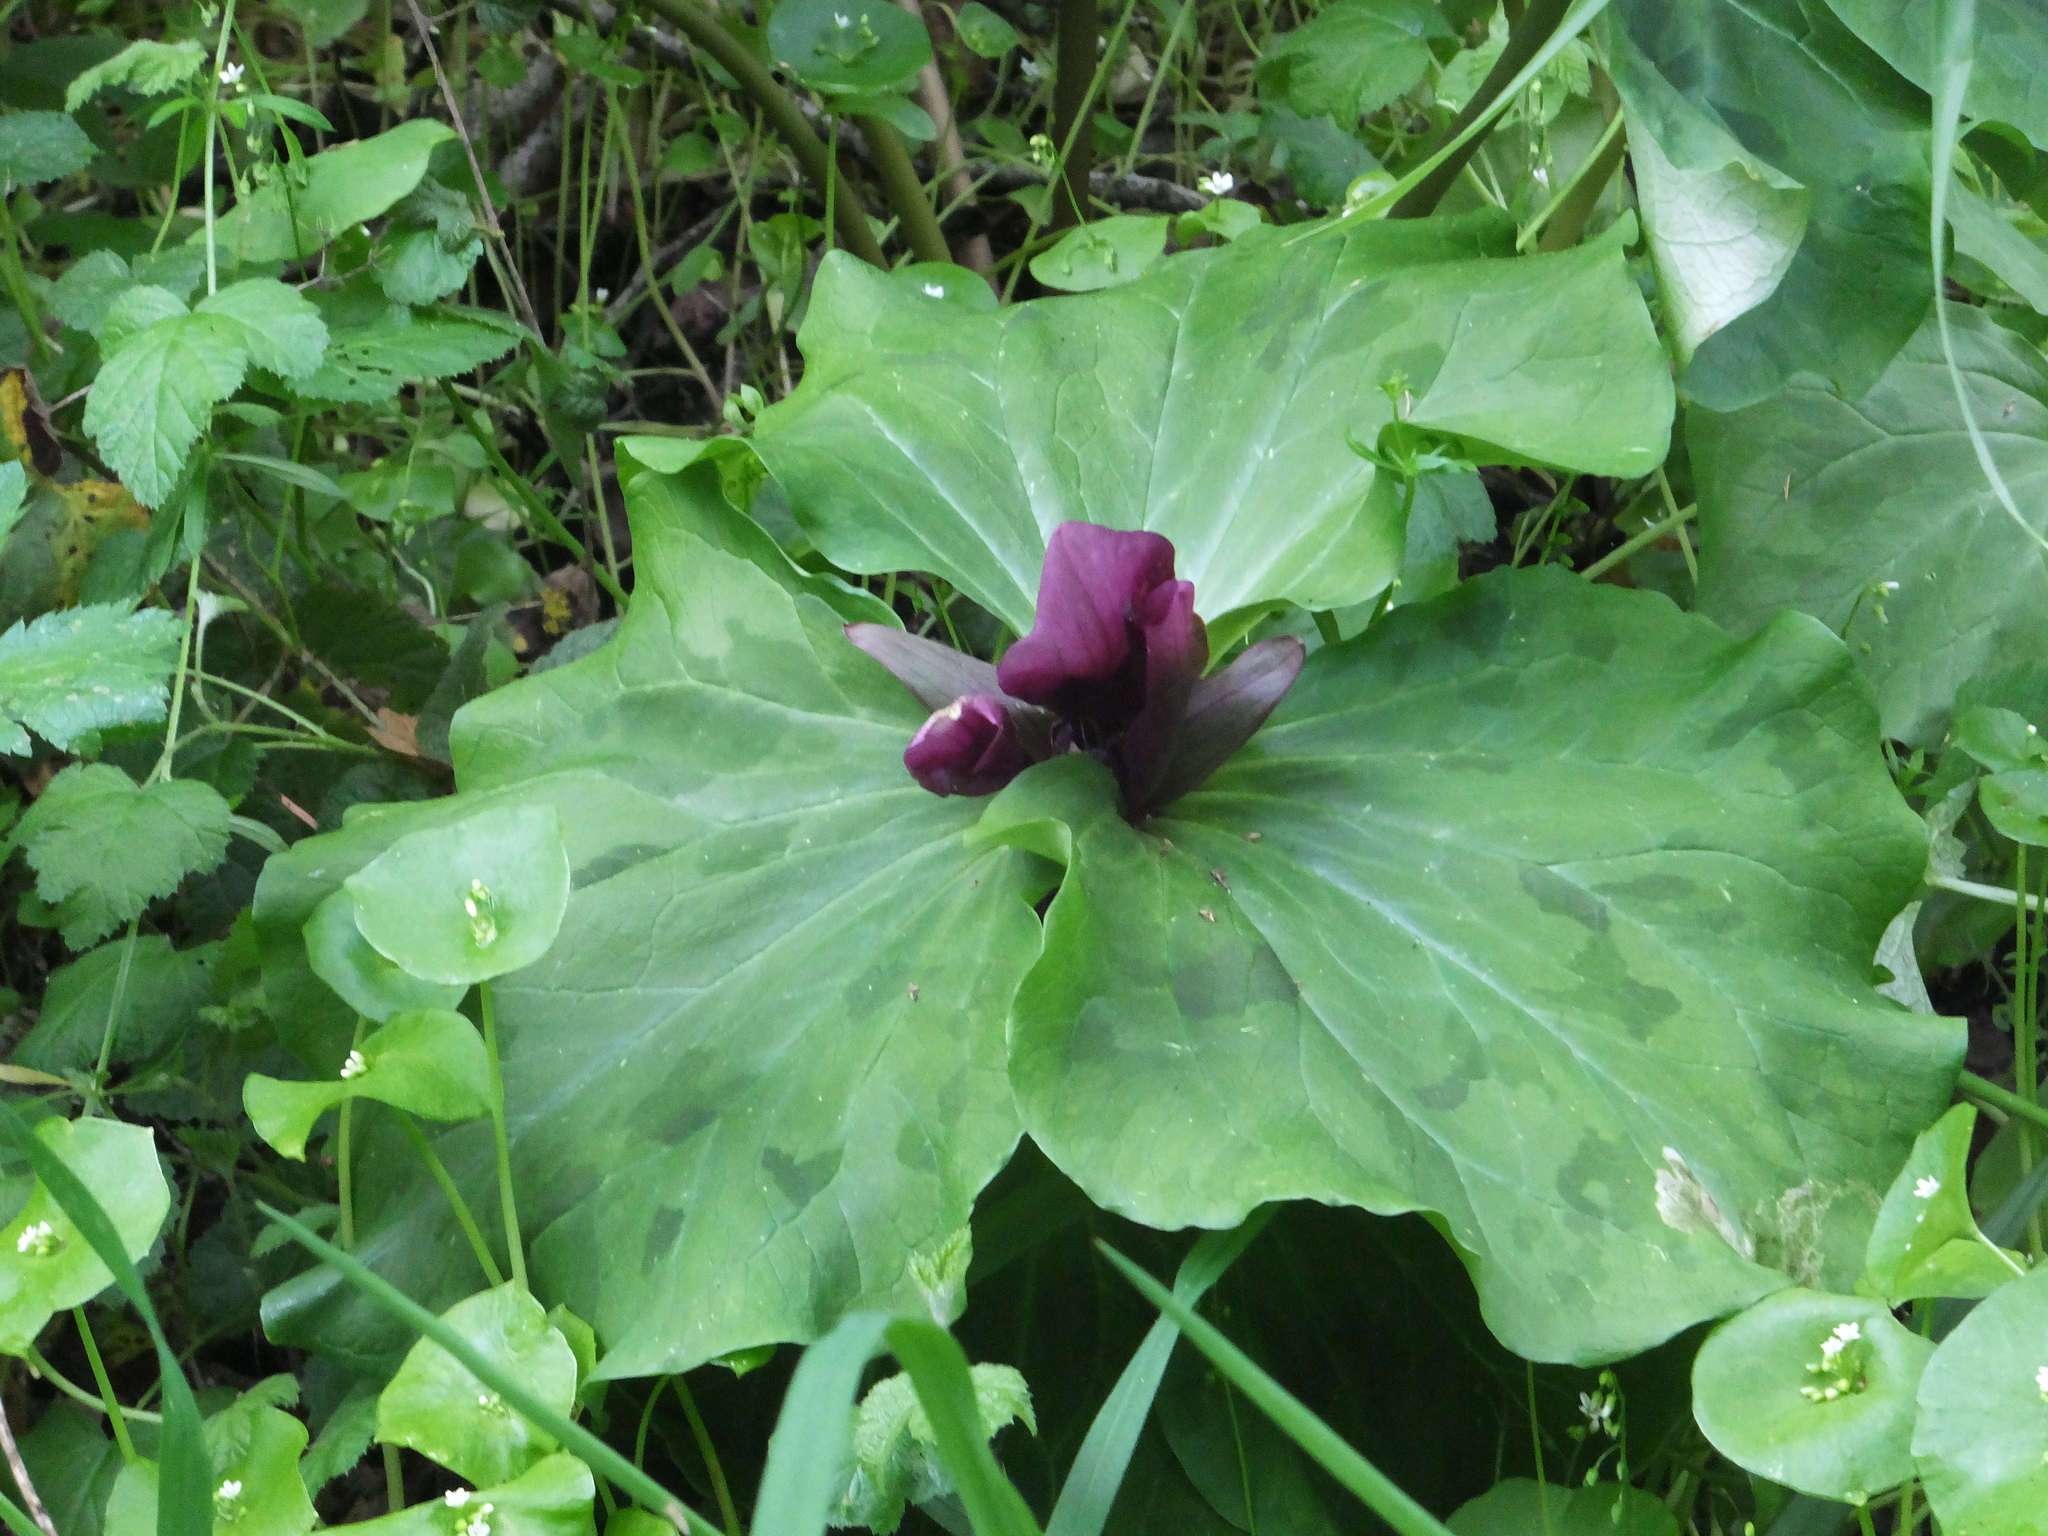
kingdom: Plantae
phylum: Tracheophyta
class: Liliopsida
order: Liliales
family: Melanthiaceae
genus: Trillium
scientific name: Trillium chloropetalum
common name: Giant trillium
